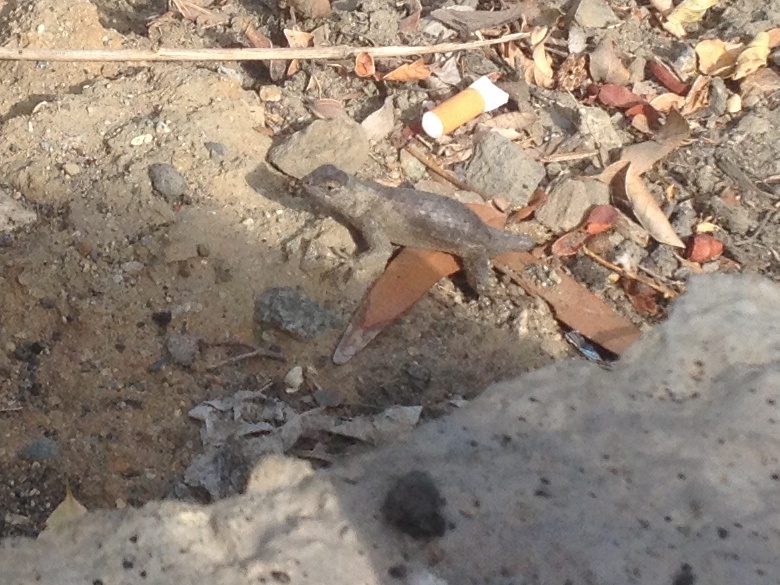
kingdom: Animalia
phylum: Chordata
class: Squamata
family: Phrynosomatidae
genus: Sceloporus
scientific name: Sceloporus occidentalis
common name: Western fence lizard
